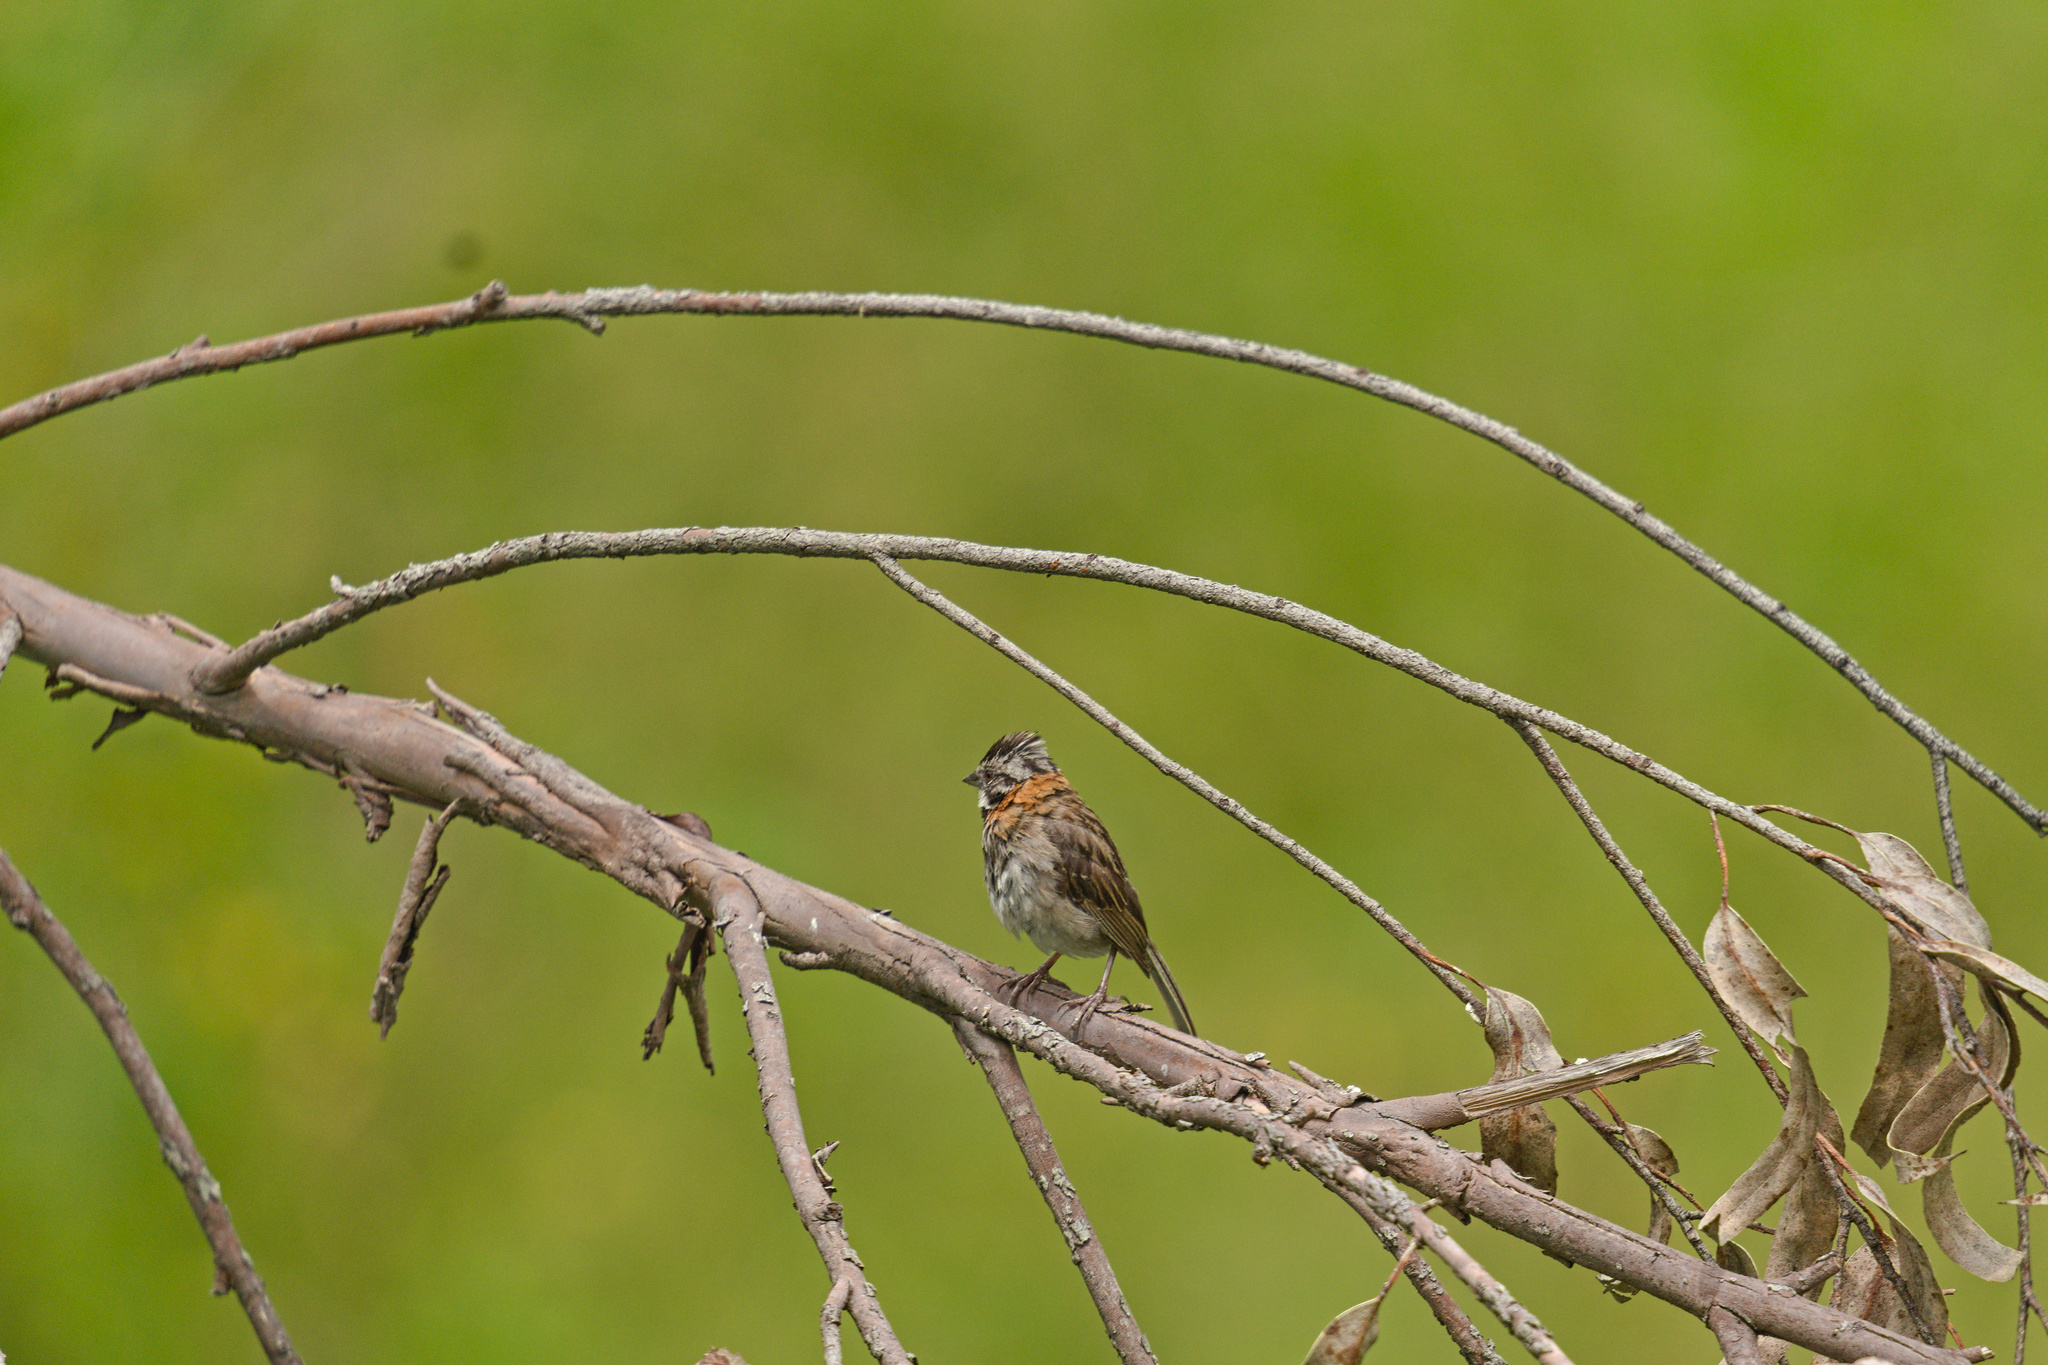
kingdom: Animalia
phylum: Chordata
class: Aves
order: Passeriformes
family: Passerellidae
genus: Zonotrichia
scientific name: Zonotrichia capensis
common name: Rufous-collared sparrow
